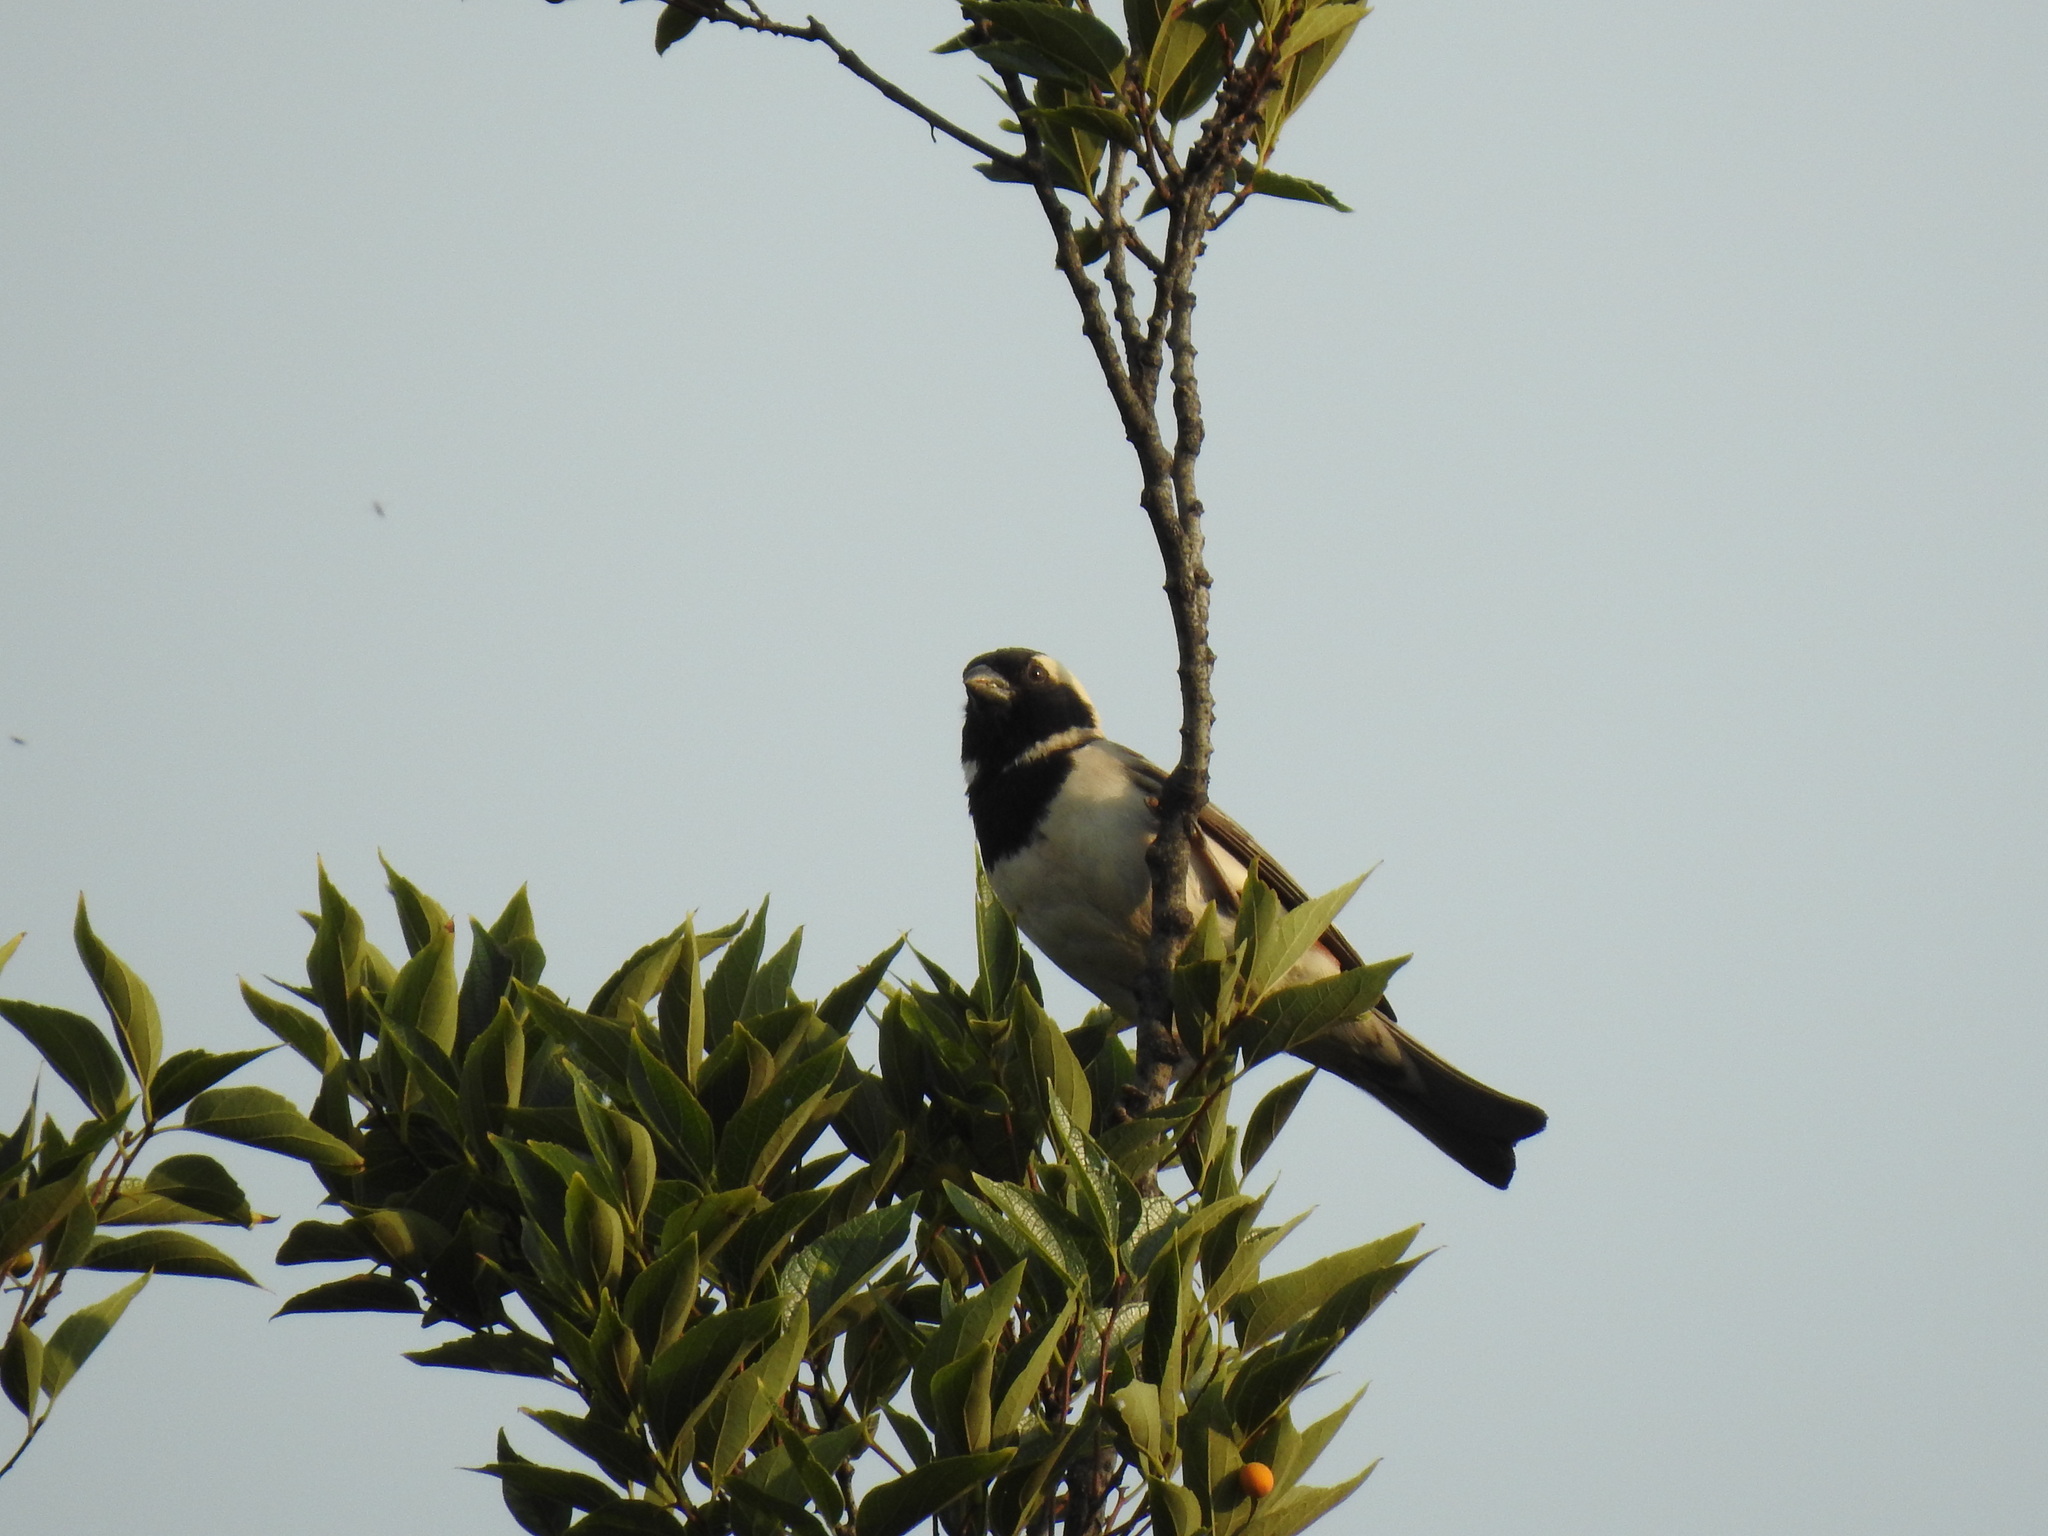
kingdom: Animalia
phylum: Chordata
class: Aves
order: Passeriformes
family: Passeridae
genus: Passer
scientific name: Passer melanurus
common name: Cape sparrow
